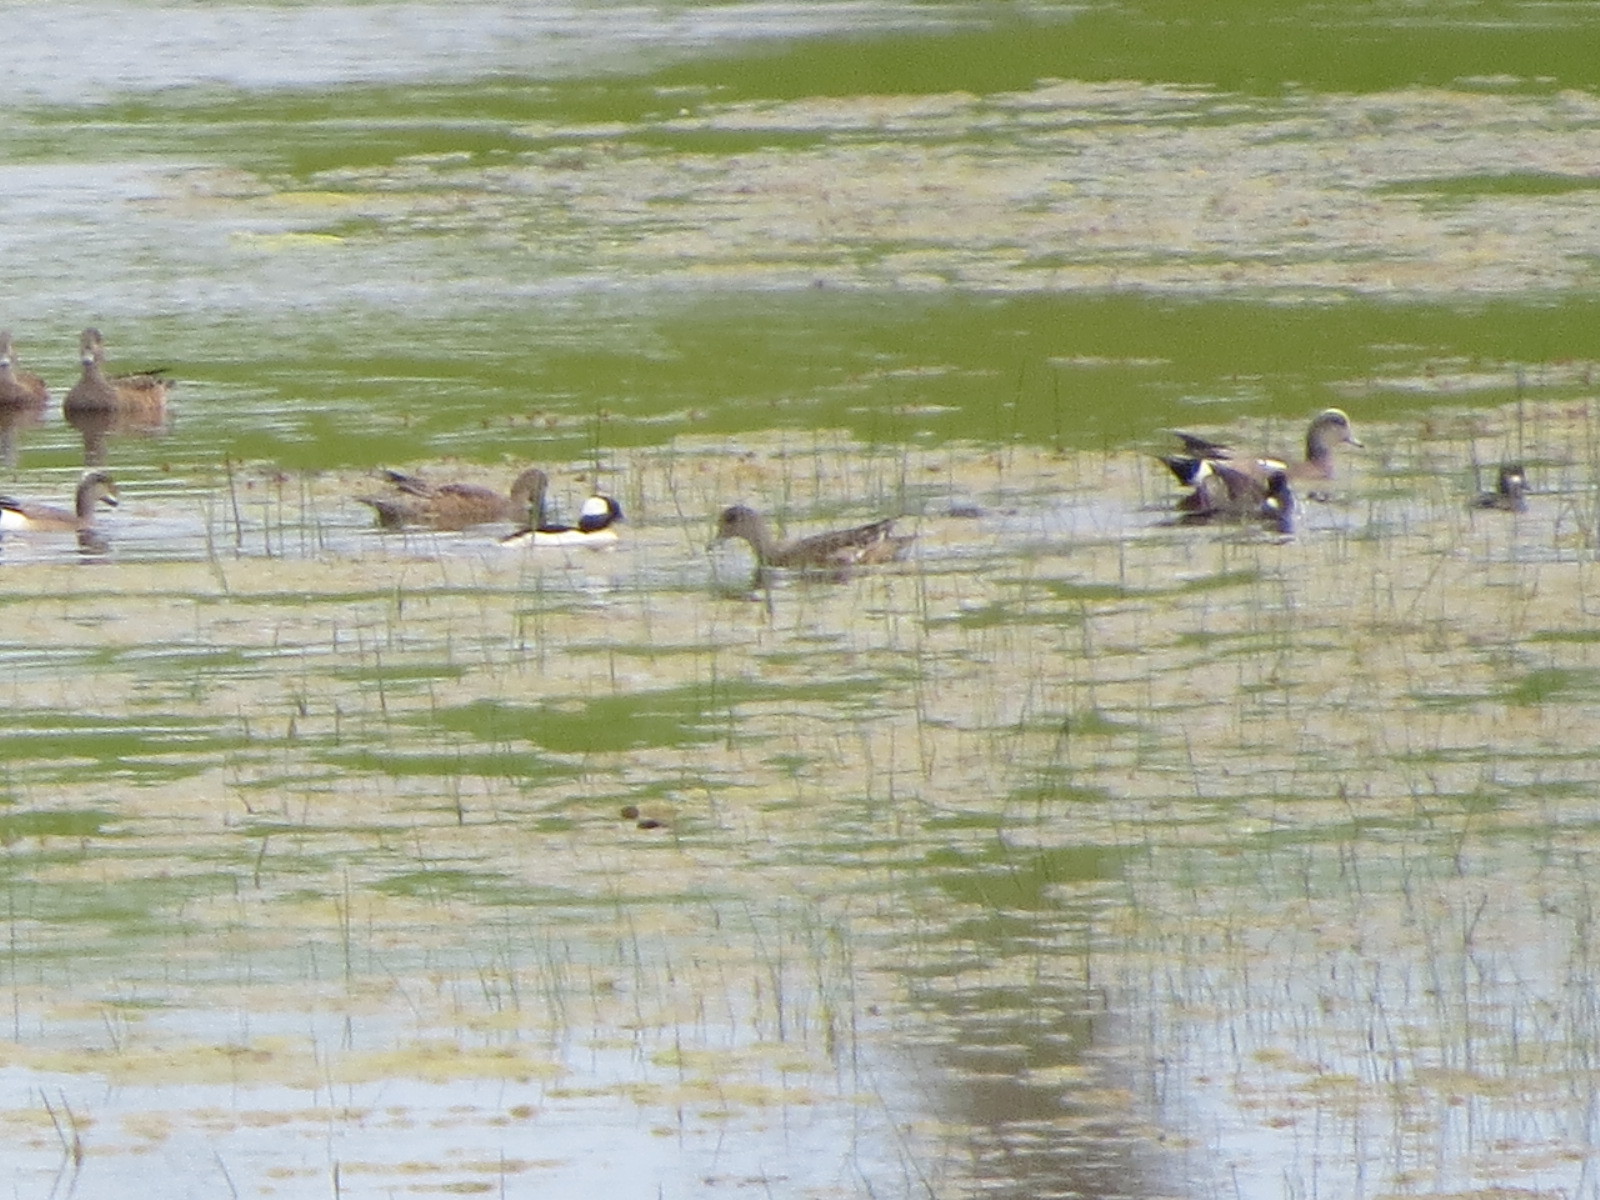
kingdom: Animalia
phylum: Chordata
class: Aves
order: Anseriformes
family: Anatidae
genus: Bucephala
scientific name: Bucephala albeola
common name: Bufflehead
